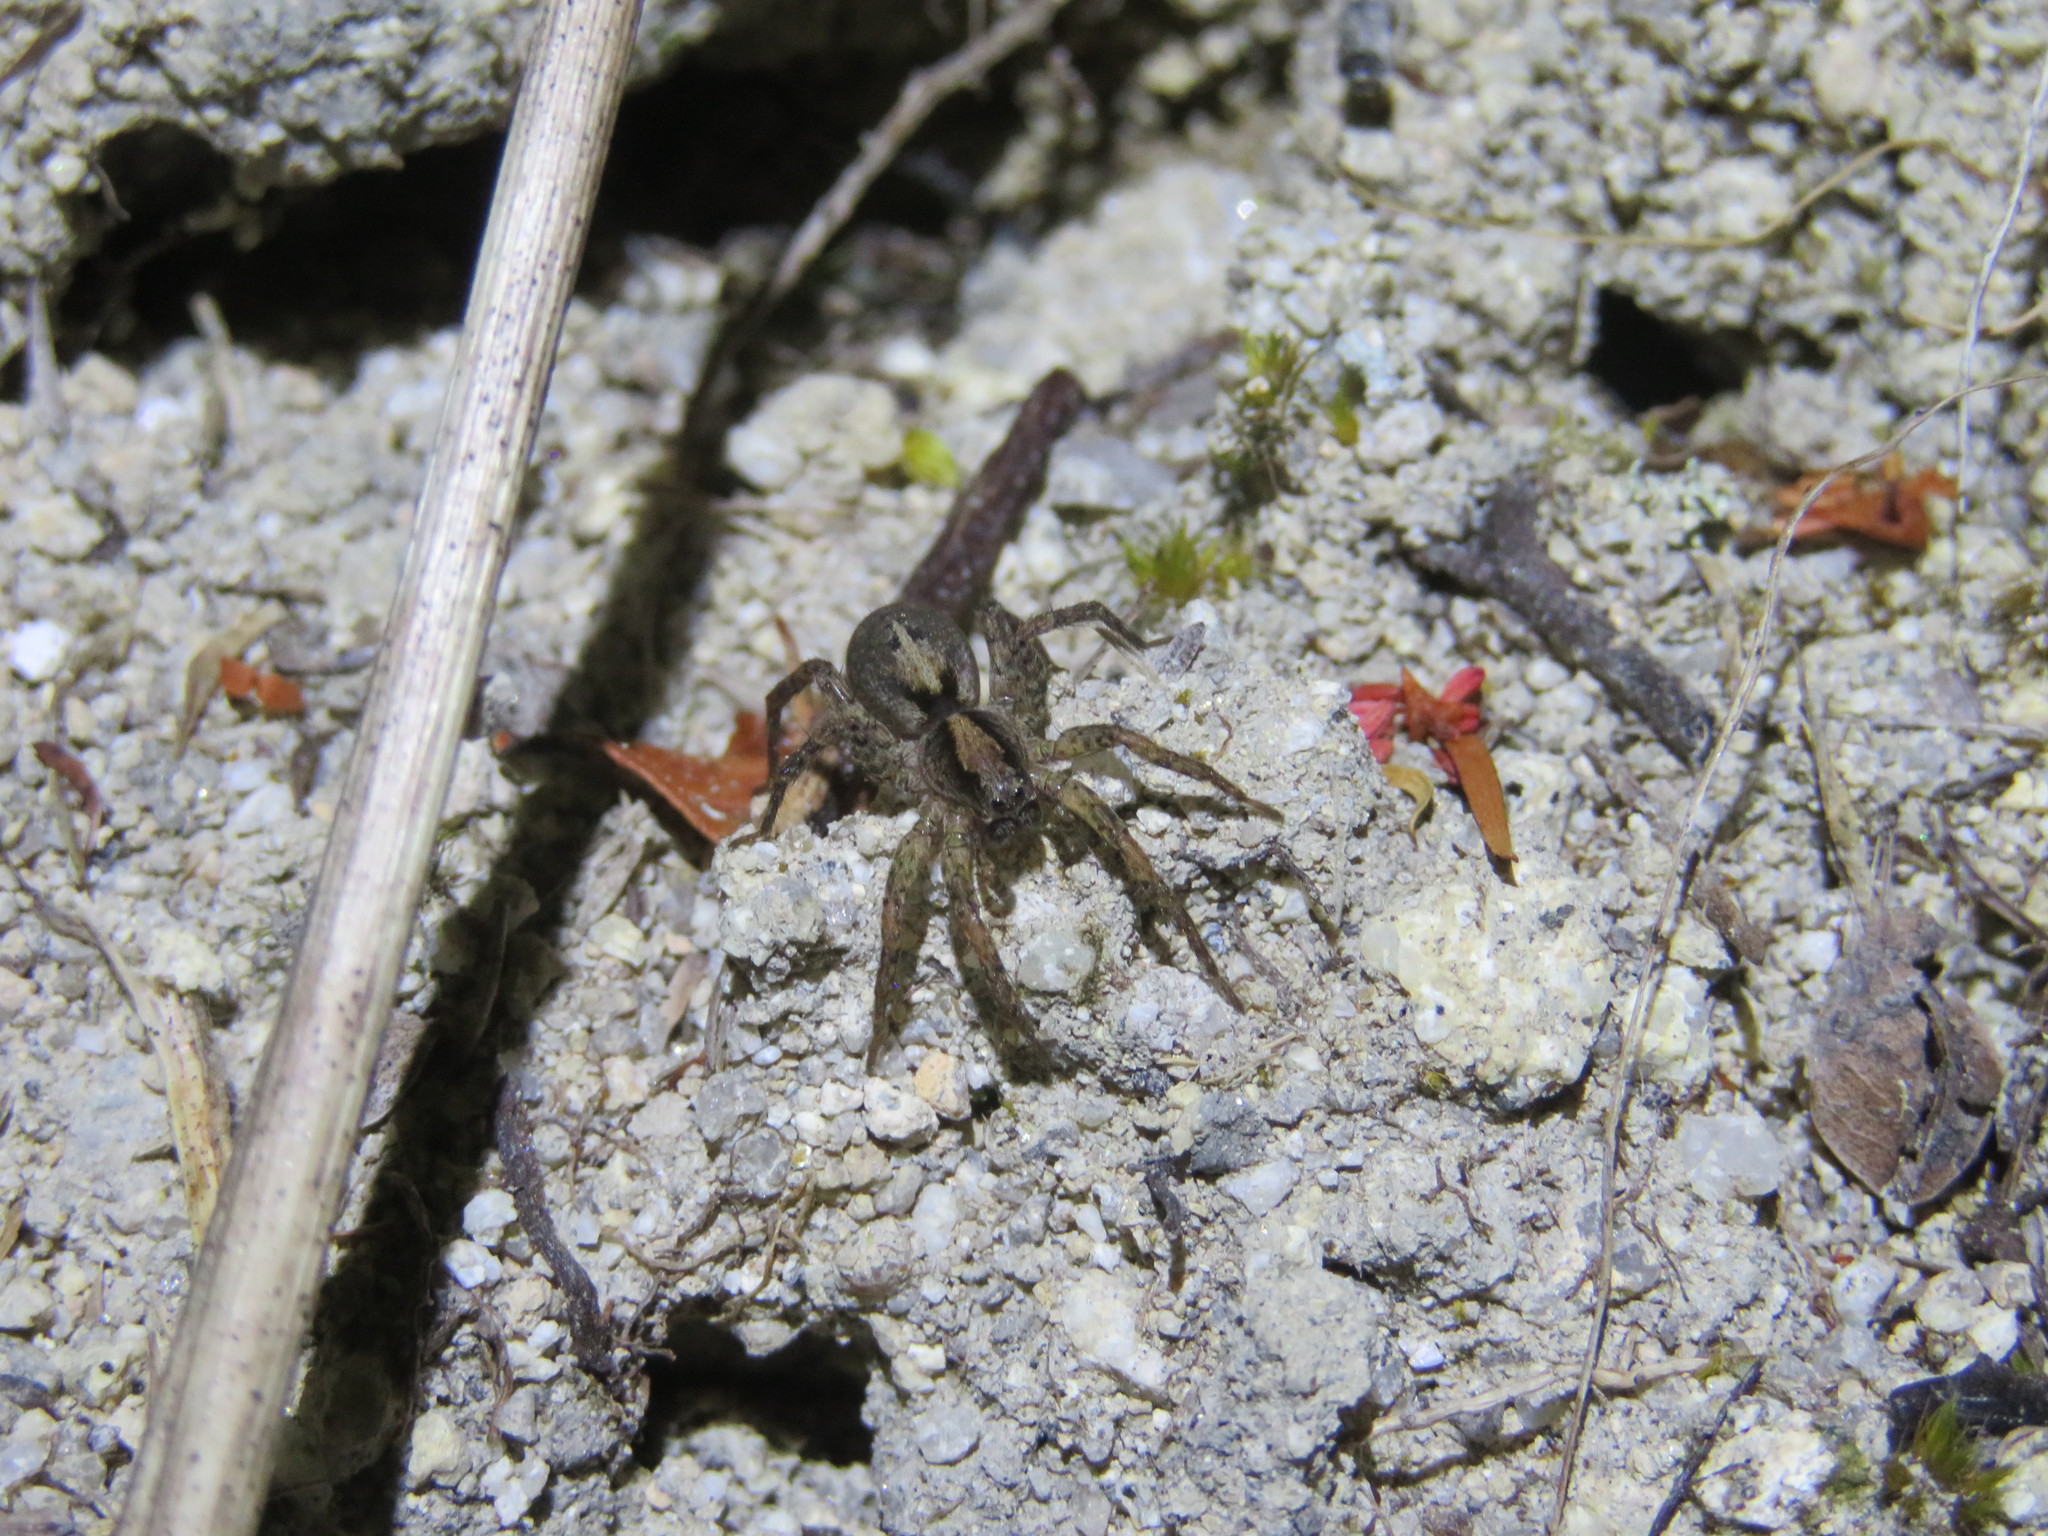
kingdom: Animalia
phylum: Arthropoda
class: Arachnida
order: Araneae
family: Lycosidae
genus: Anoteropsis
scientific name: Anoteropsis hilaris
